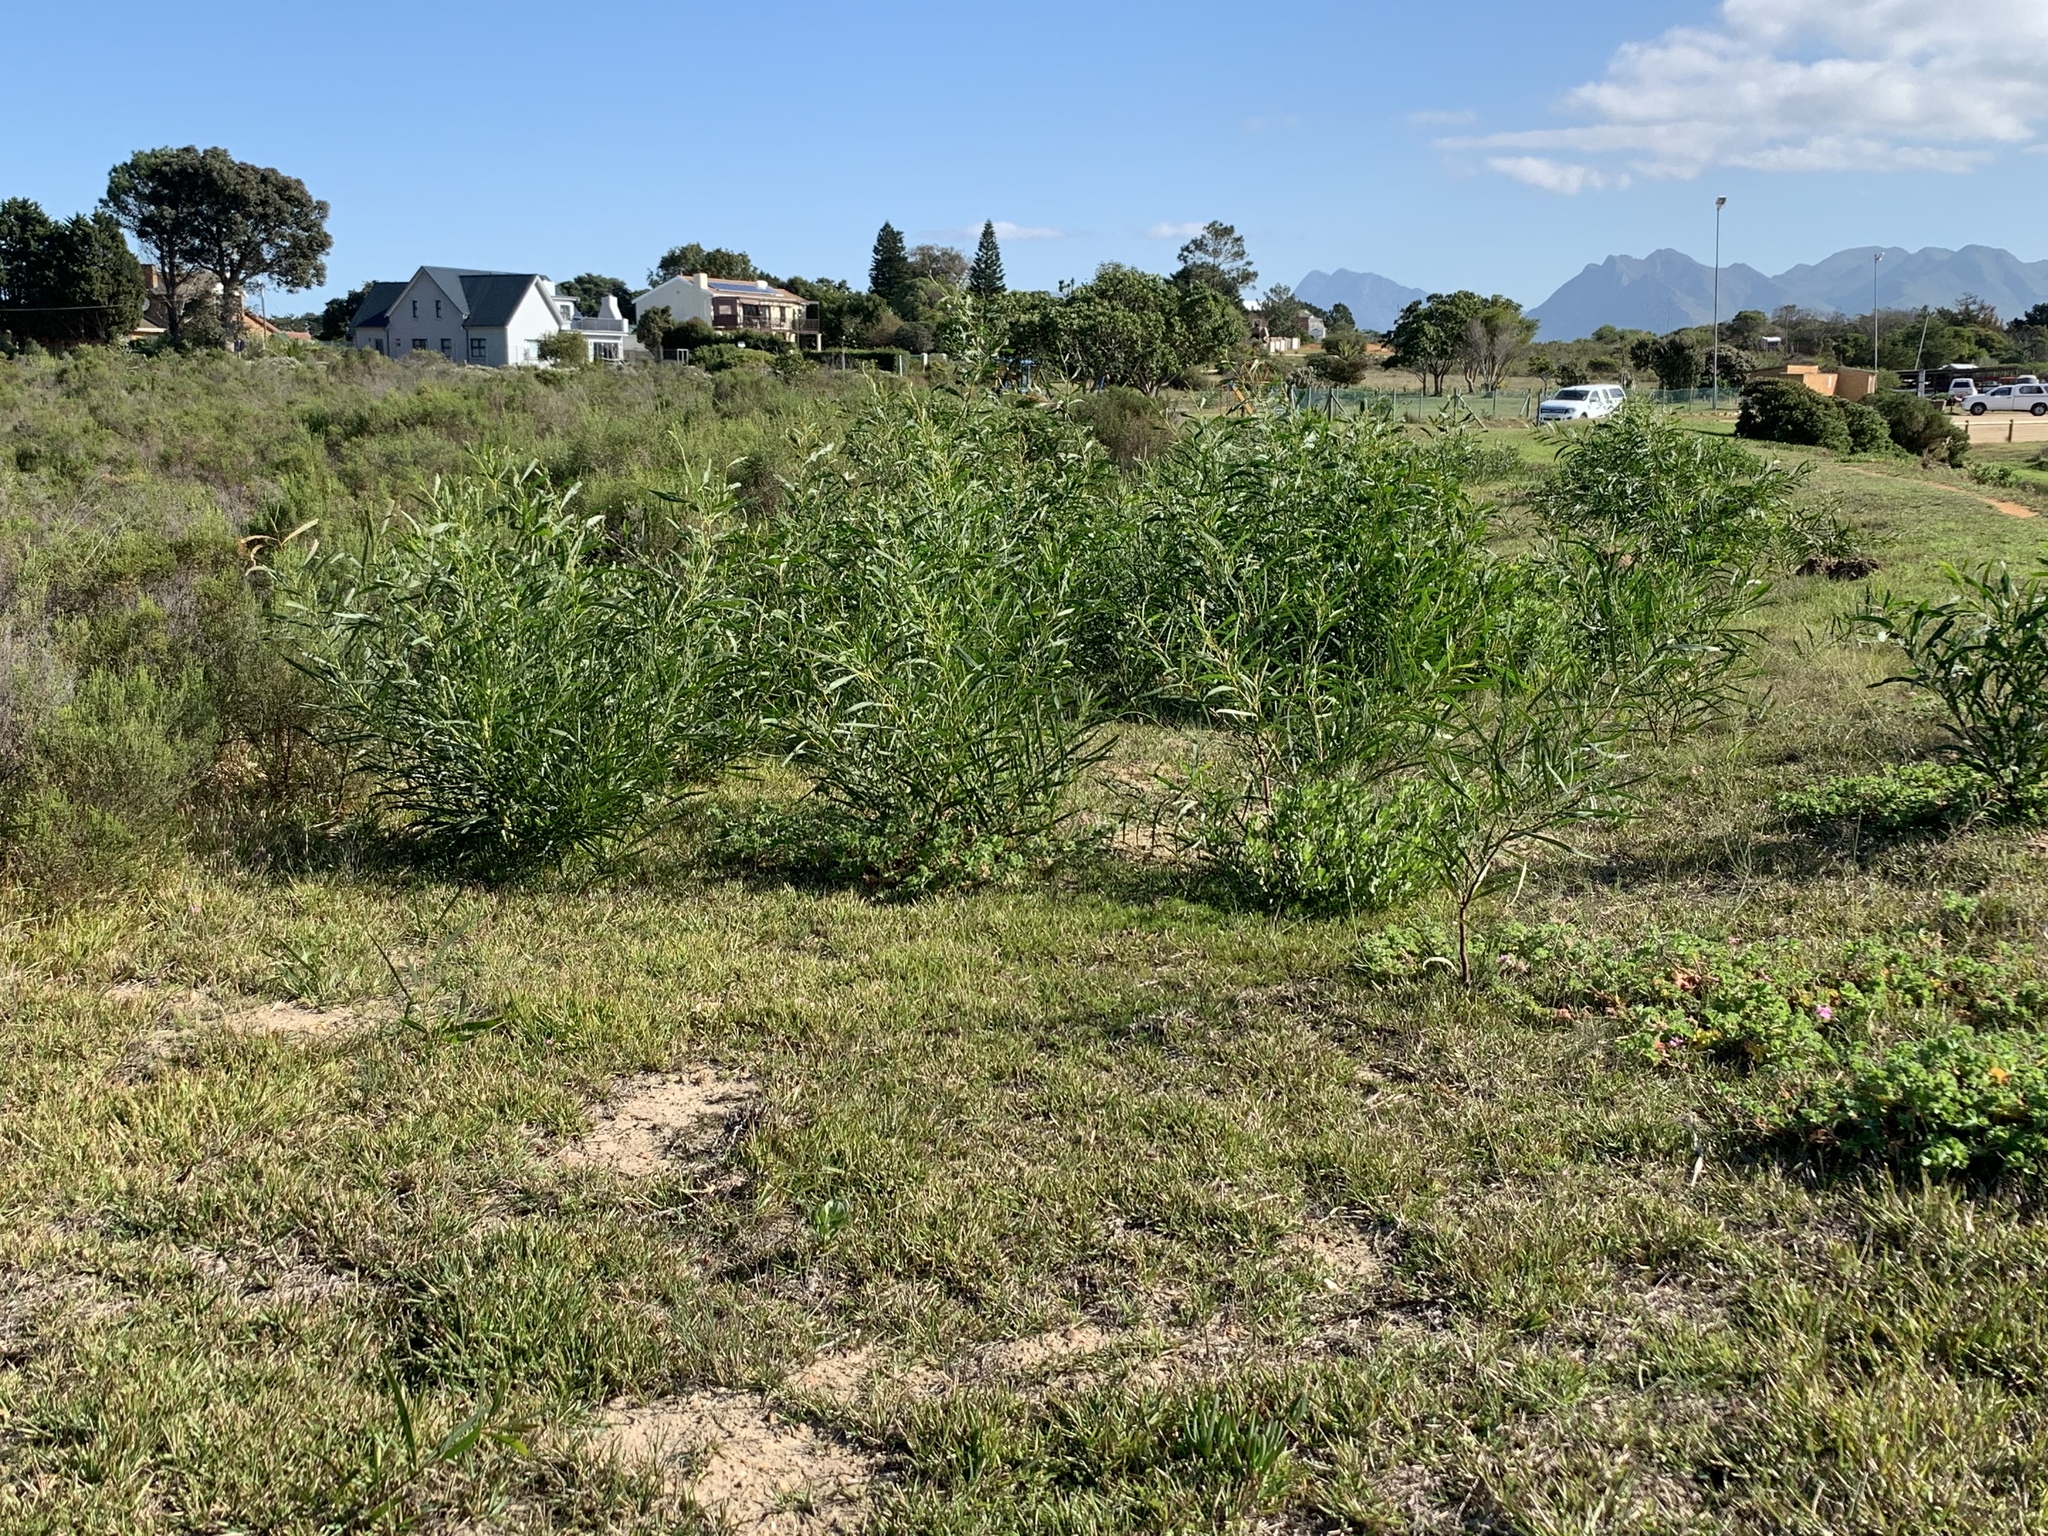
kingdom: Plantae
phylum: Tracheophyta
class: Magnoliopsida
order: Fabales
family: Fabaceae
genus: Acacia
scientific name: Acacia saligna
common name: Orange wattle
